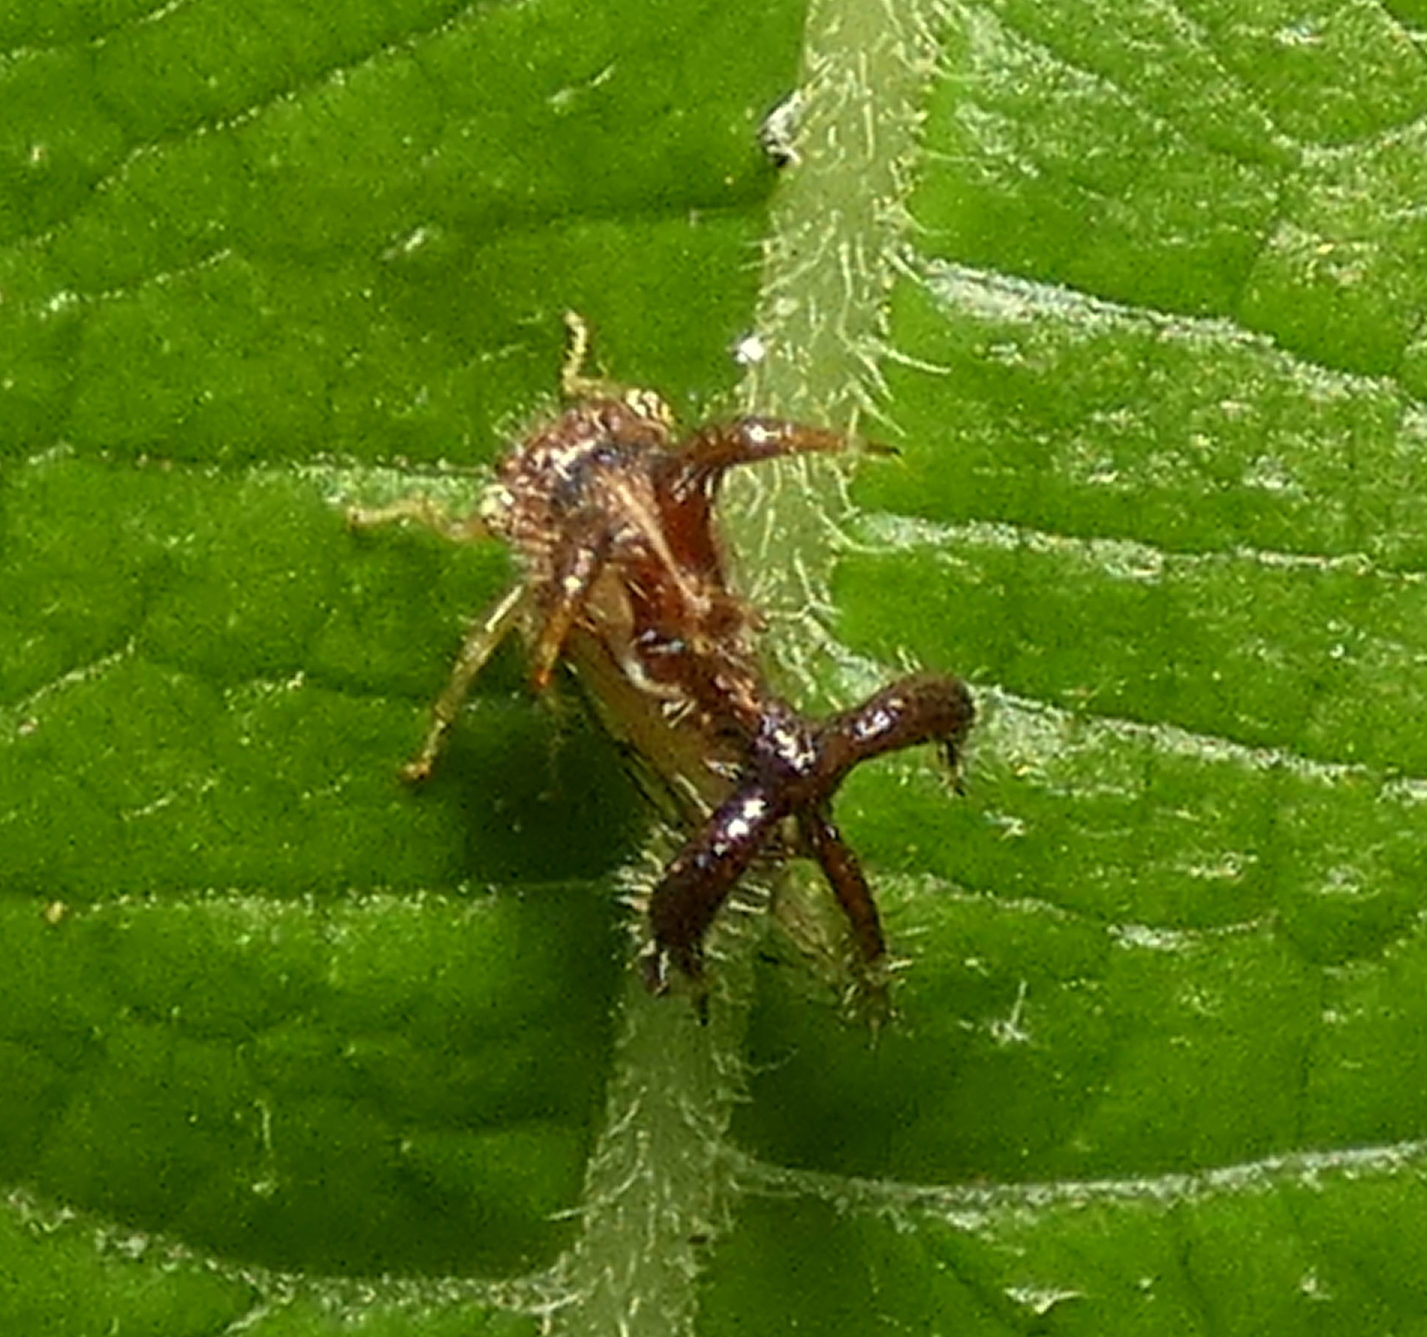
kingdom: Animalia
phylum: Arthropoda
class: Insecta
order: Hemiptera
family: Membracidae
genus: Cyphonia
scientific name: Cyphonia nordestina
